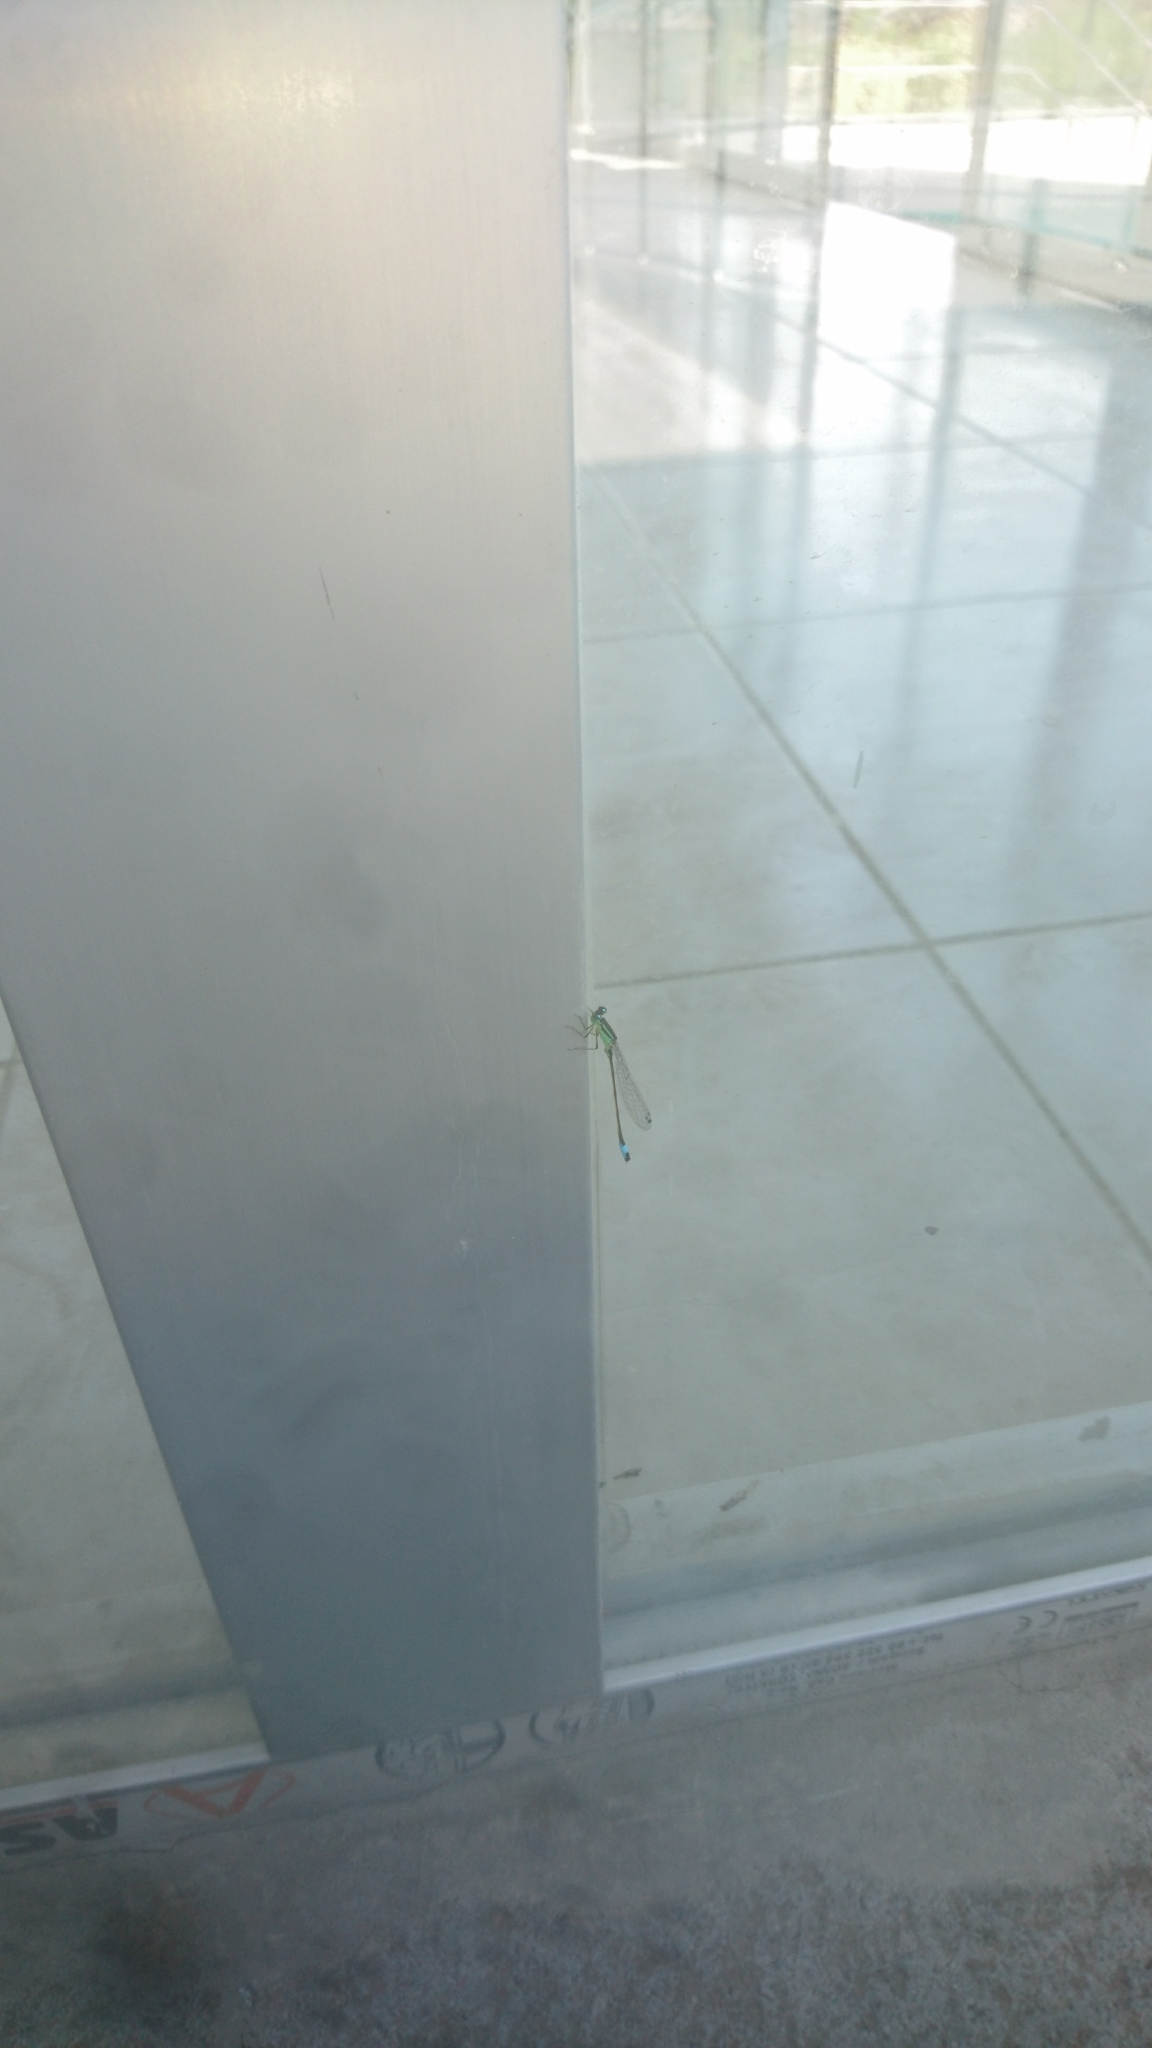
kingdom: Animalia
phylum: Arthropoda
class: Insecta
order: Odonata
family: Coenagrionidae
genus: Ischnura
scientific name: Ischnura elegans
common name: Blue-tailed damselfly
